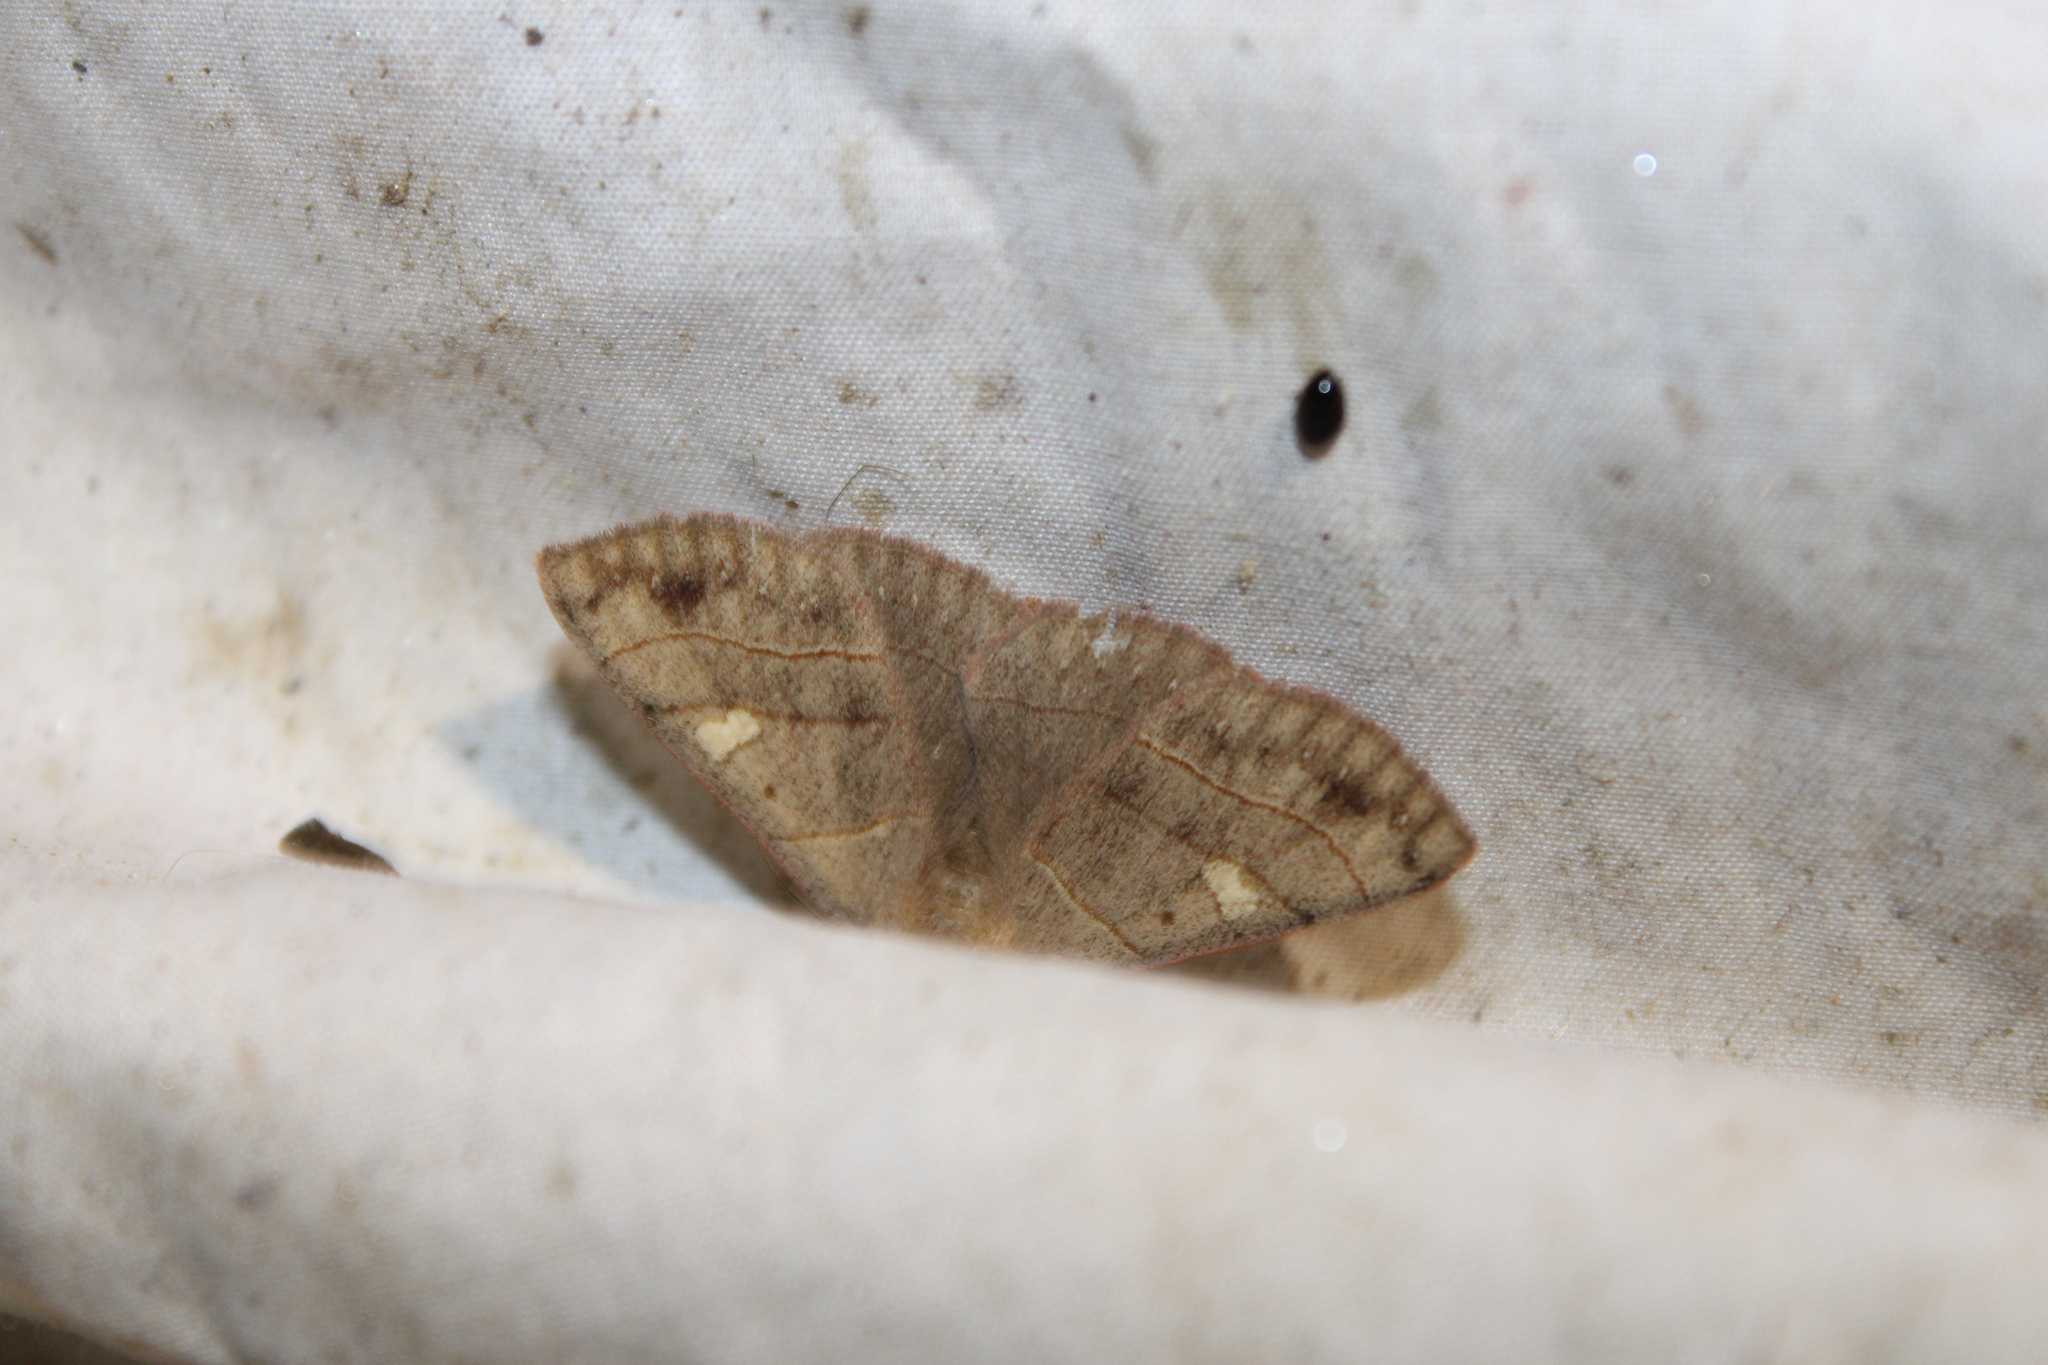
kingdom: Animalia
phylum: Arthropoda
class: Insecta
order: Lepidoptera
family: Erebidae
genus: Panopoda
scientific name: Panopoda rufimargo
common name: Red-lined panopoda moth
